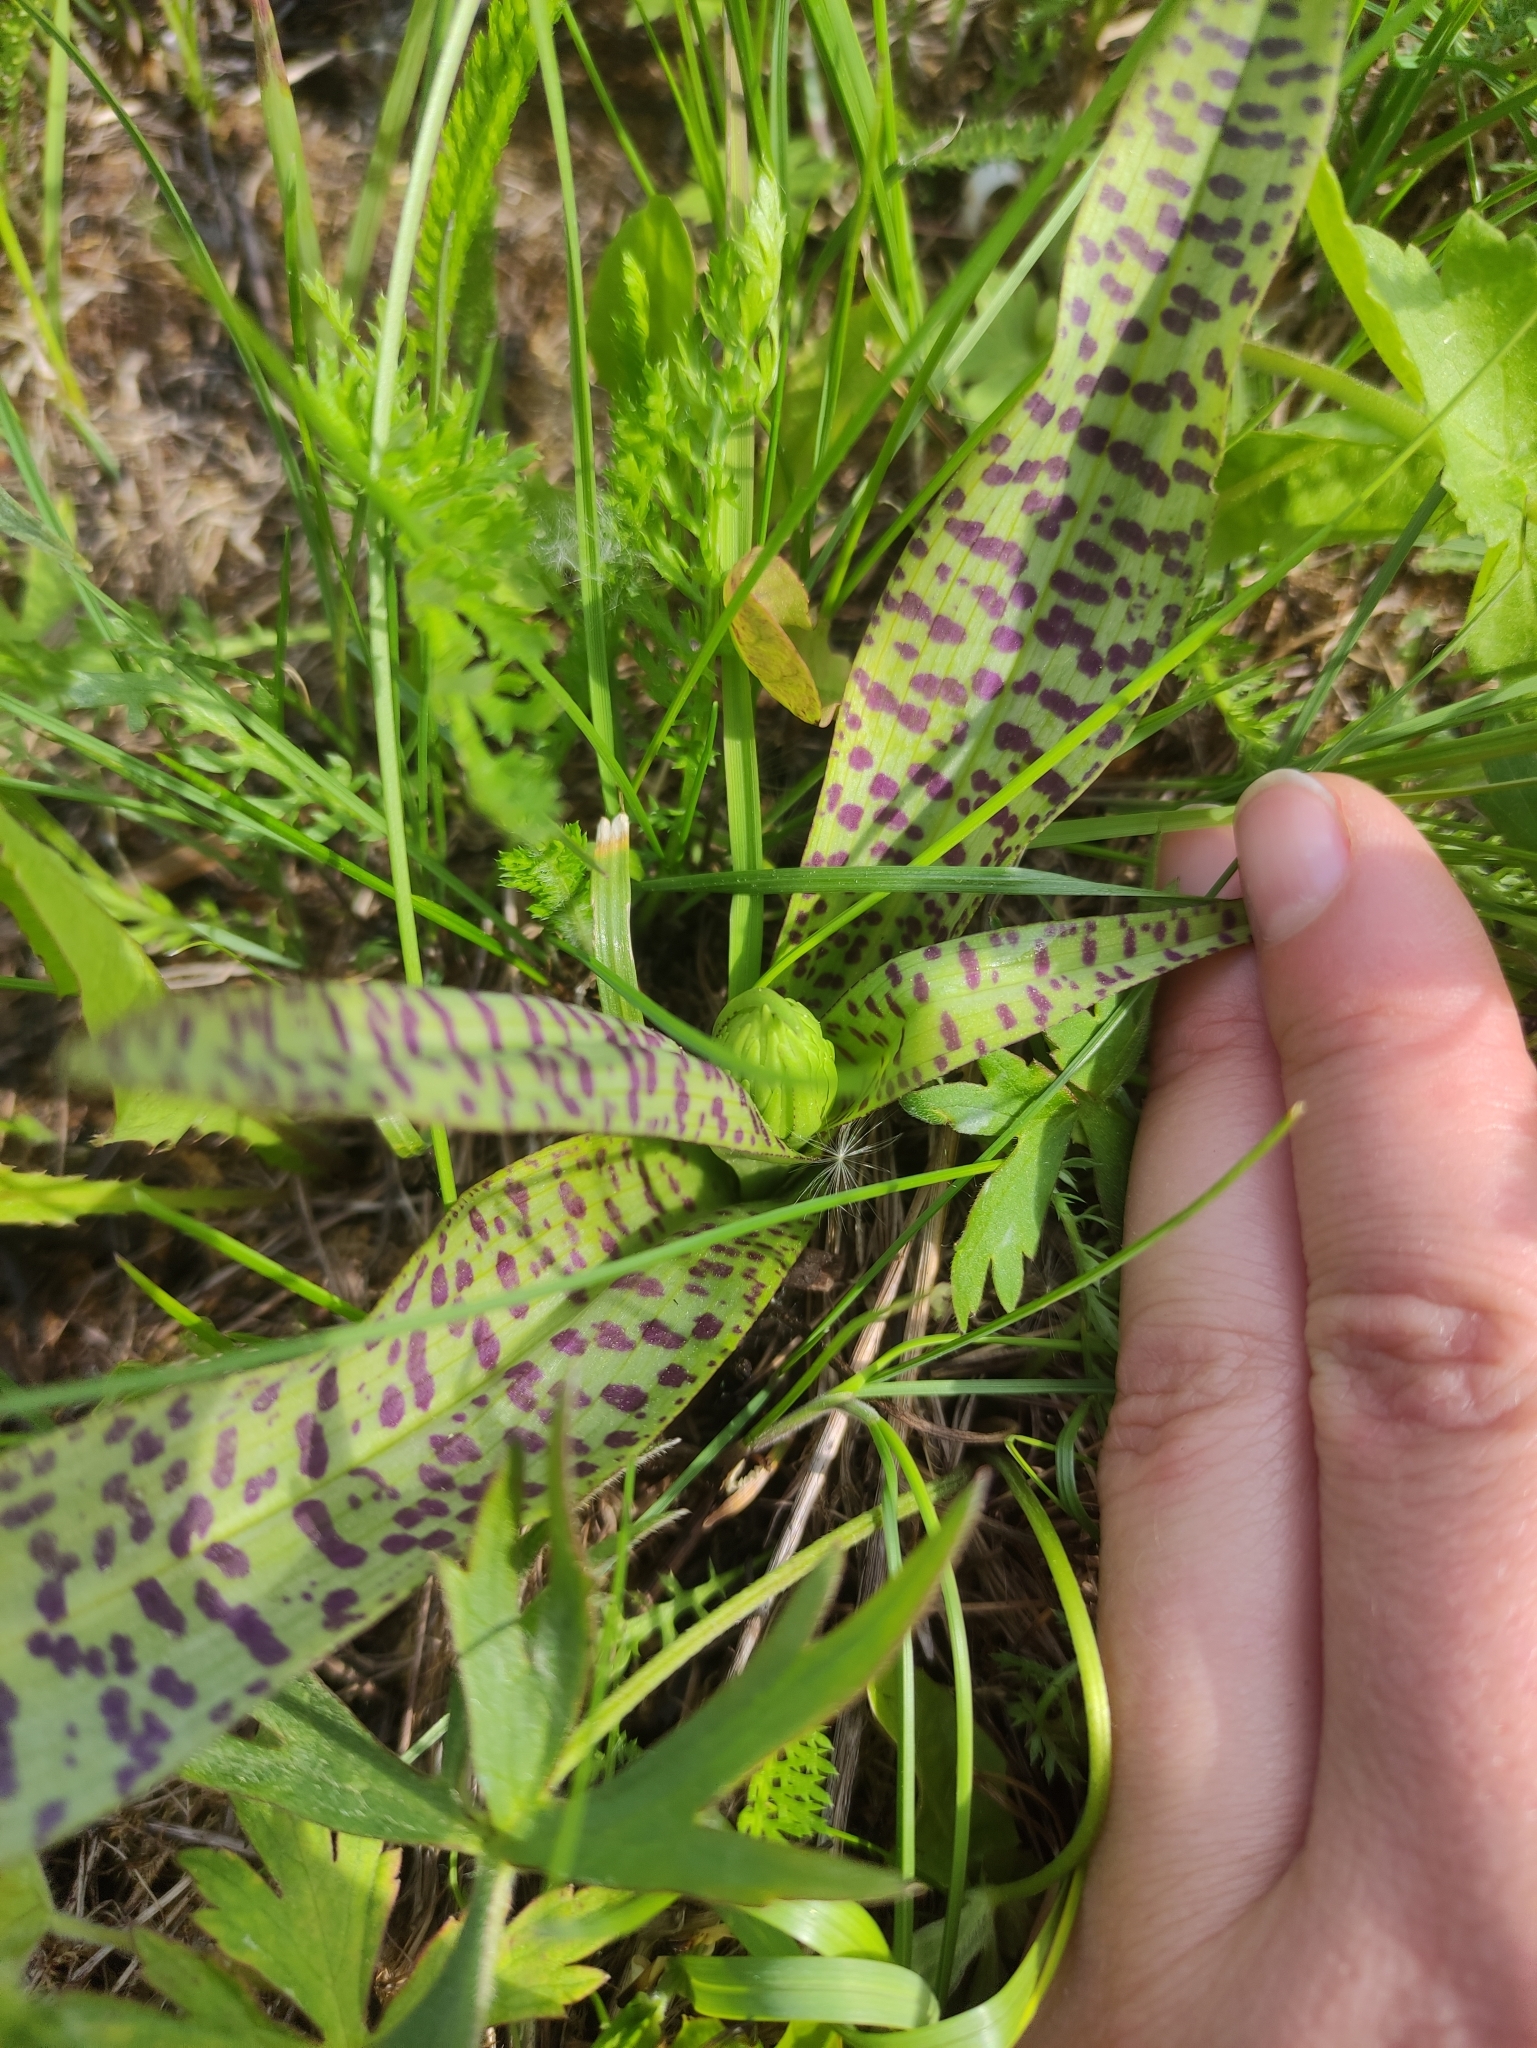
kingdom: Plantae
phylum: Tracheophyta
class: Liliopsida
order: Asparagales
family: Orchidaceae
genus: Dactylorhiza
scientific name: Dactylorhiza majalis
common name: Marsh orchid
